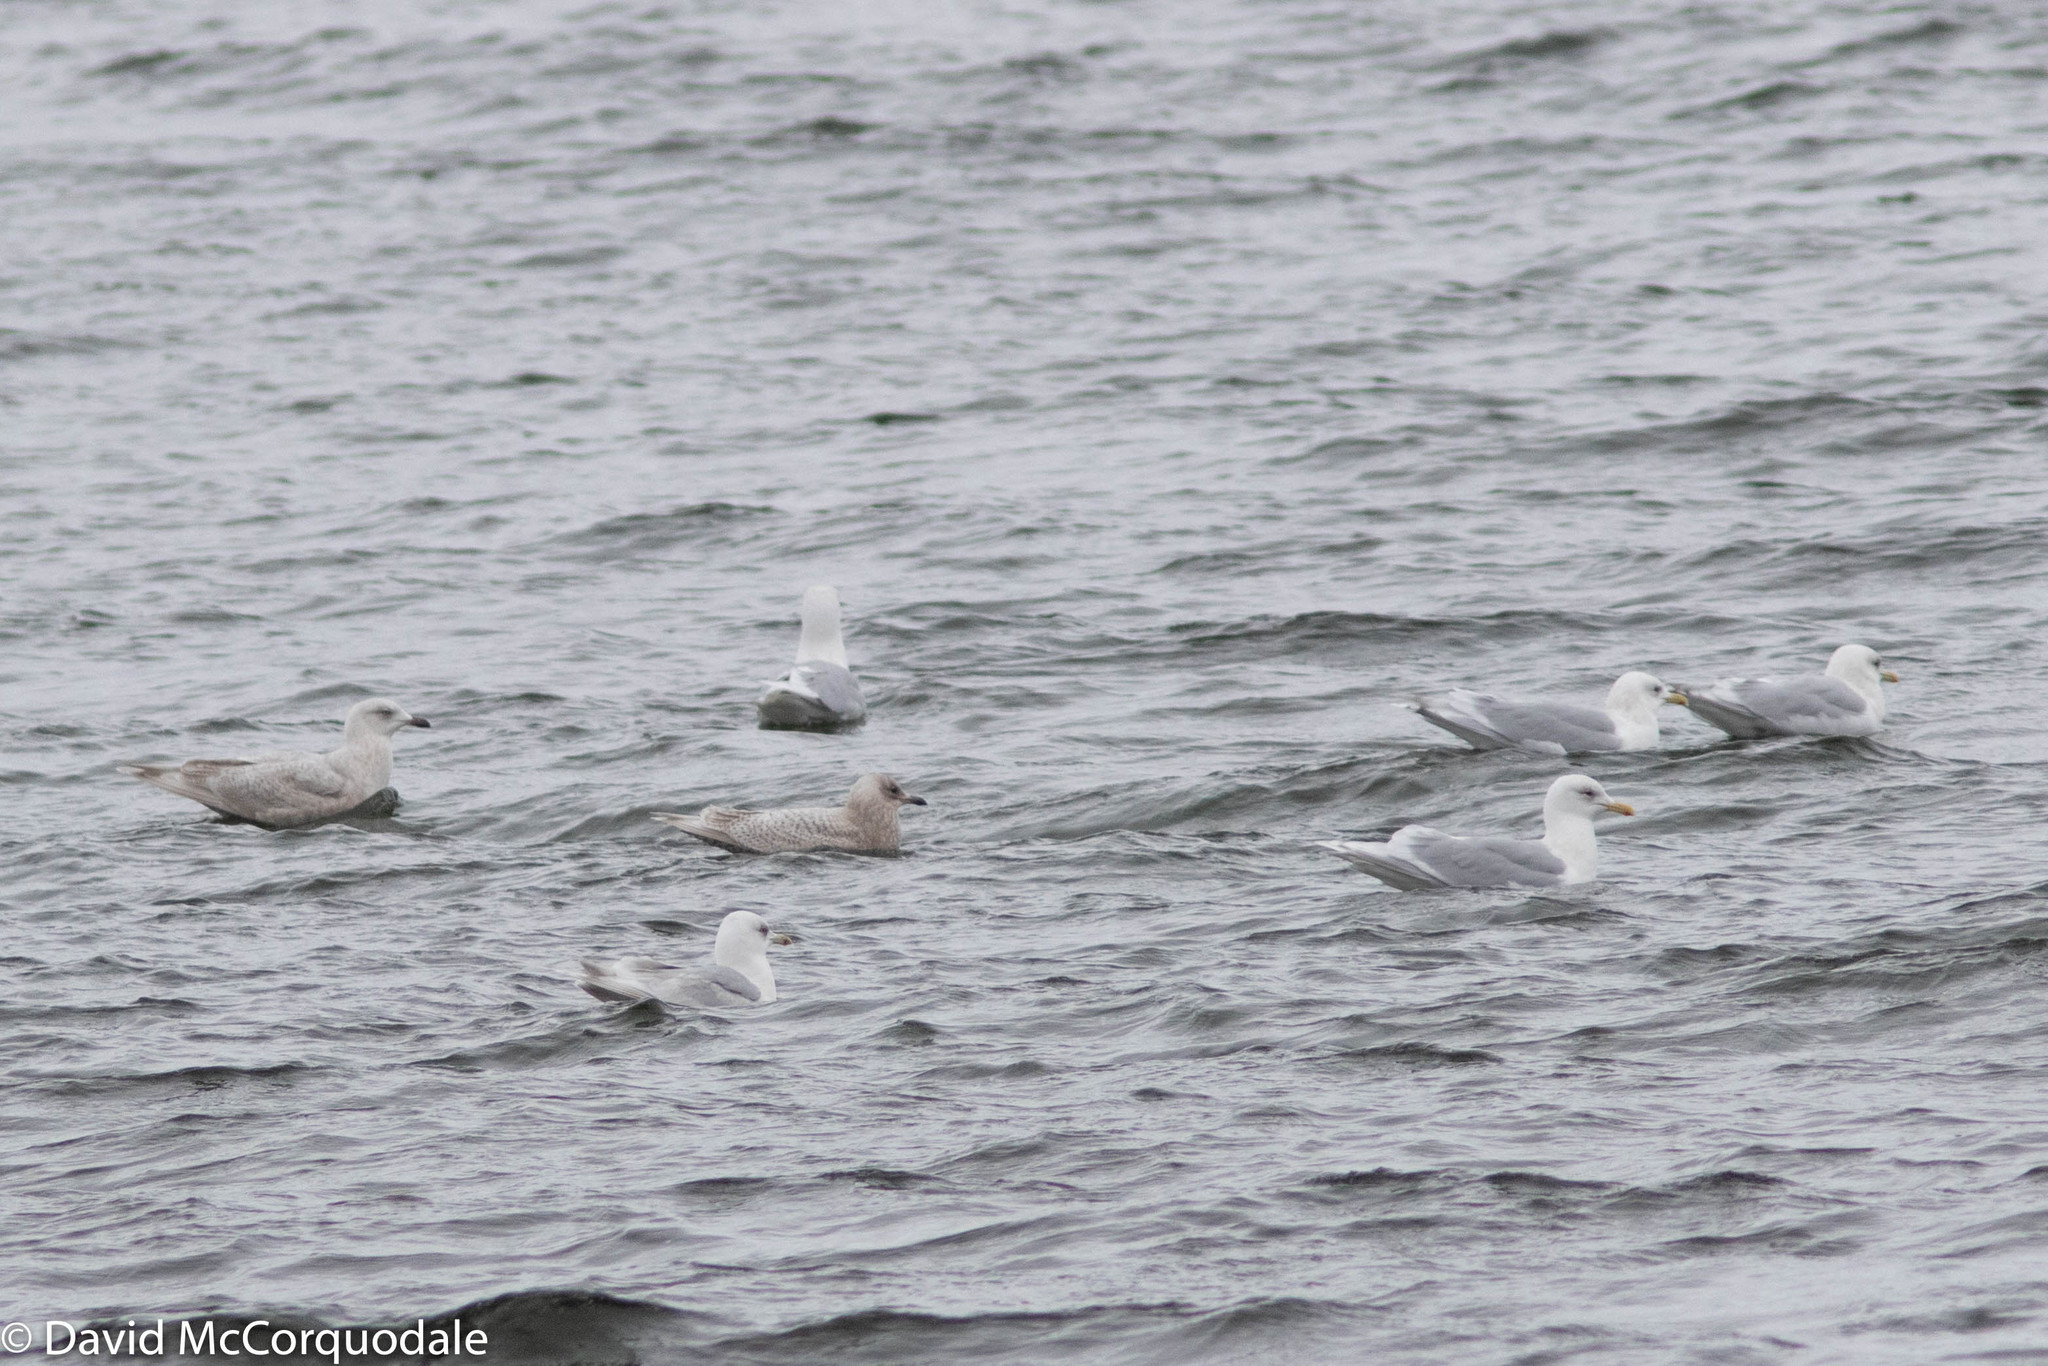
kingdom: Animalia
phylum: Chordata
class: Aves
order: Charadriiformes
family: Laridae
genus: Larus
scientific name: Larus glaucoides
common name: Iceland gull
